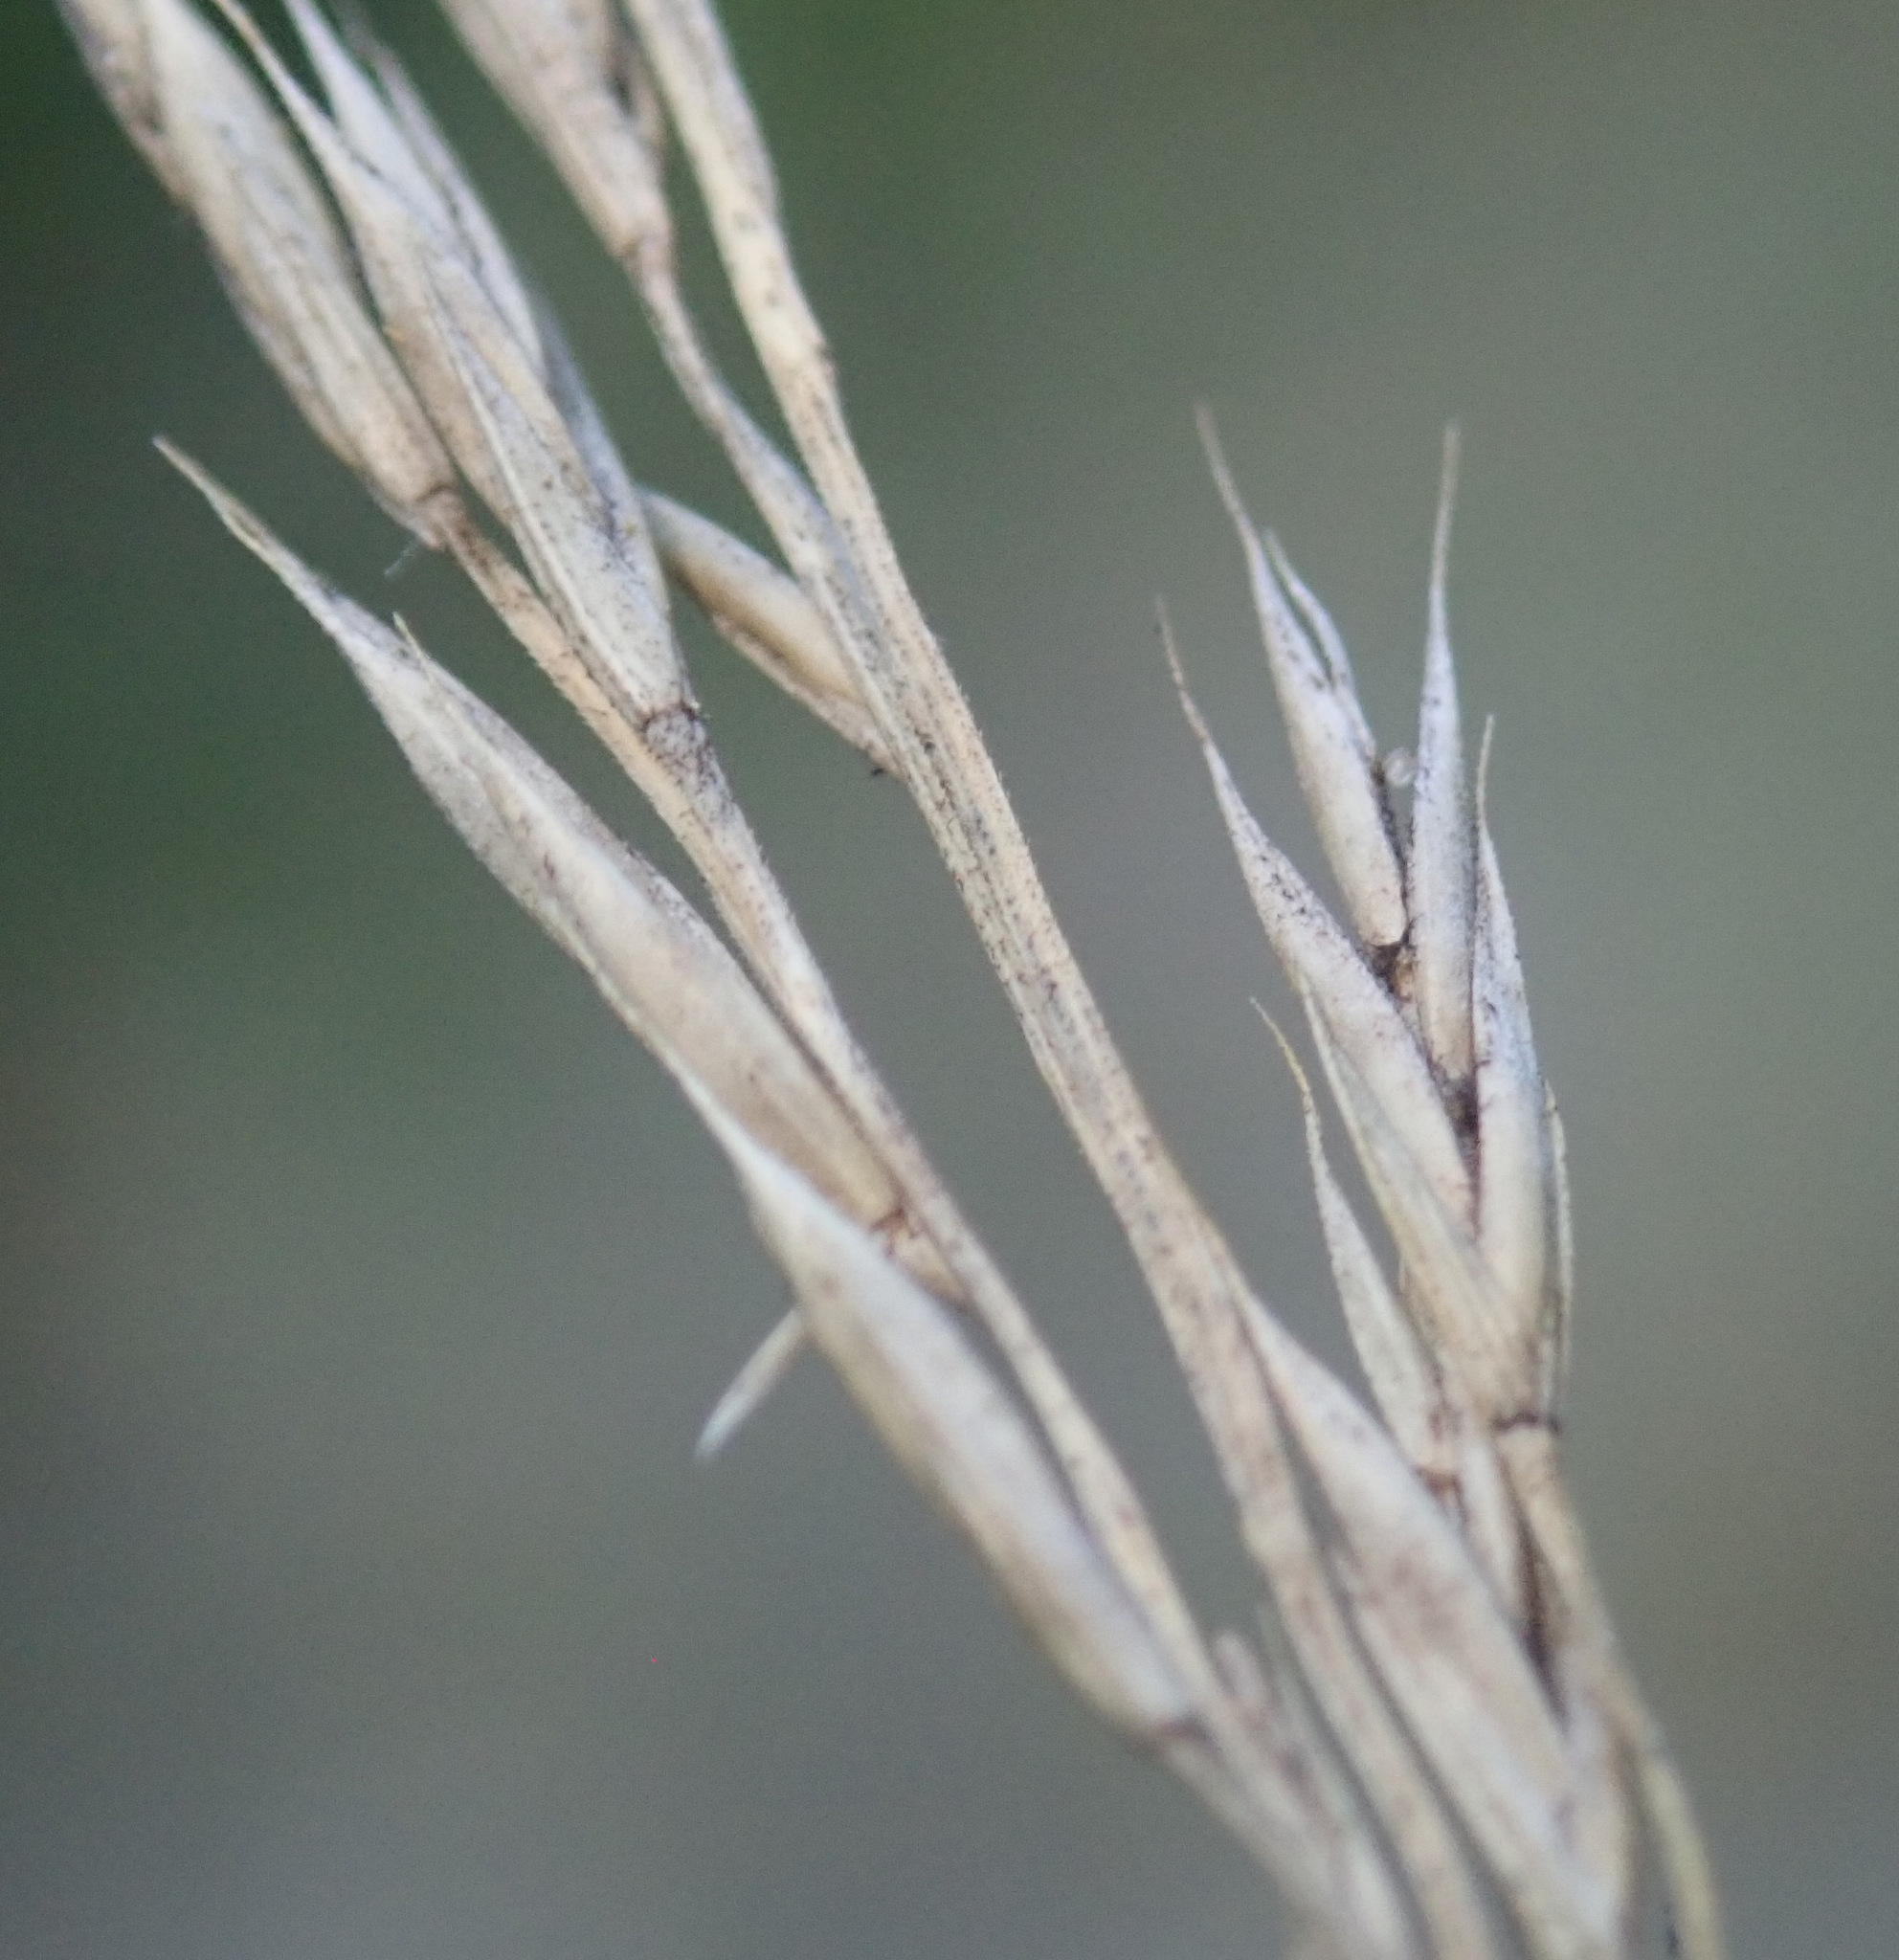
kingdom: Plantae
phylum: Tracheophyta
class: Liliopsida
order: Poales
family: Poaceae
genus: Festuca
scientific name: Festuca rubra
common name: Red fescue
